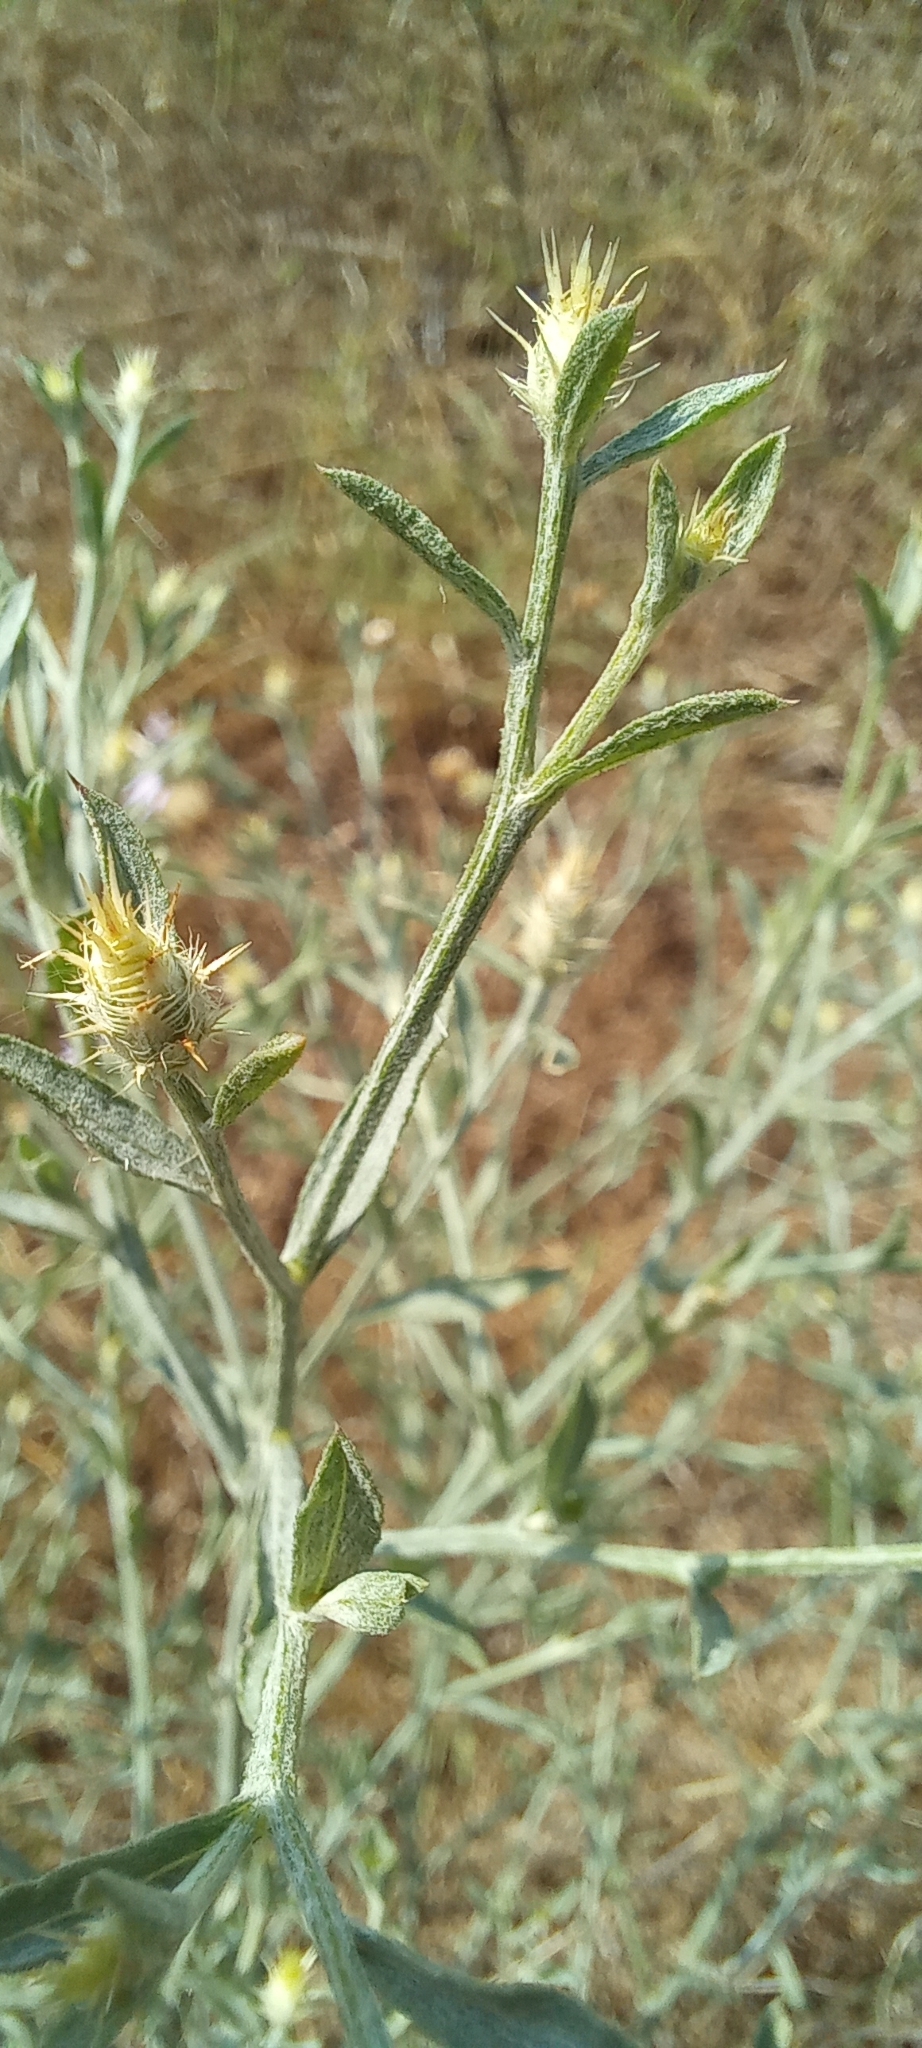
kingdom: Plantae
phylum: Tracheophyta
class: Magnoliopsida
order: Asterales
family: Asteraceae
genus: Centaurea
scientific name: Centaurea diffusa
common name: Diffuse knapweed
